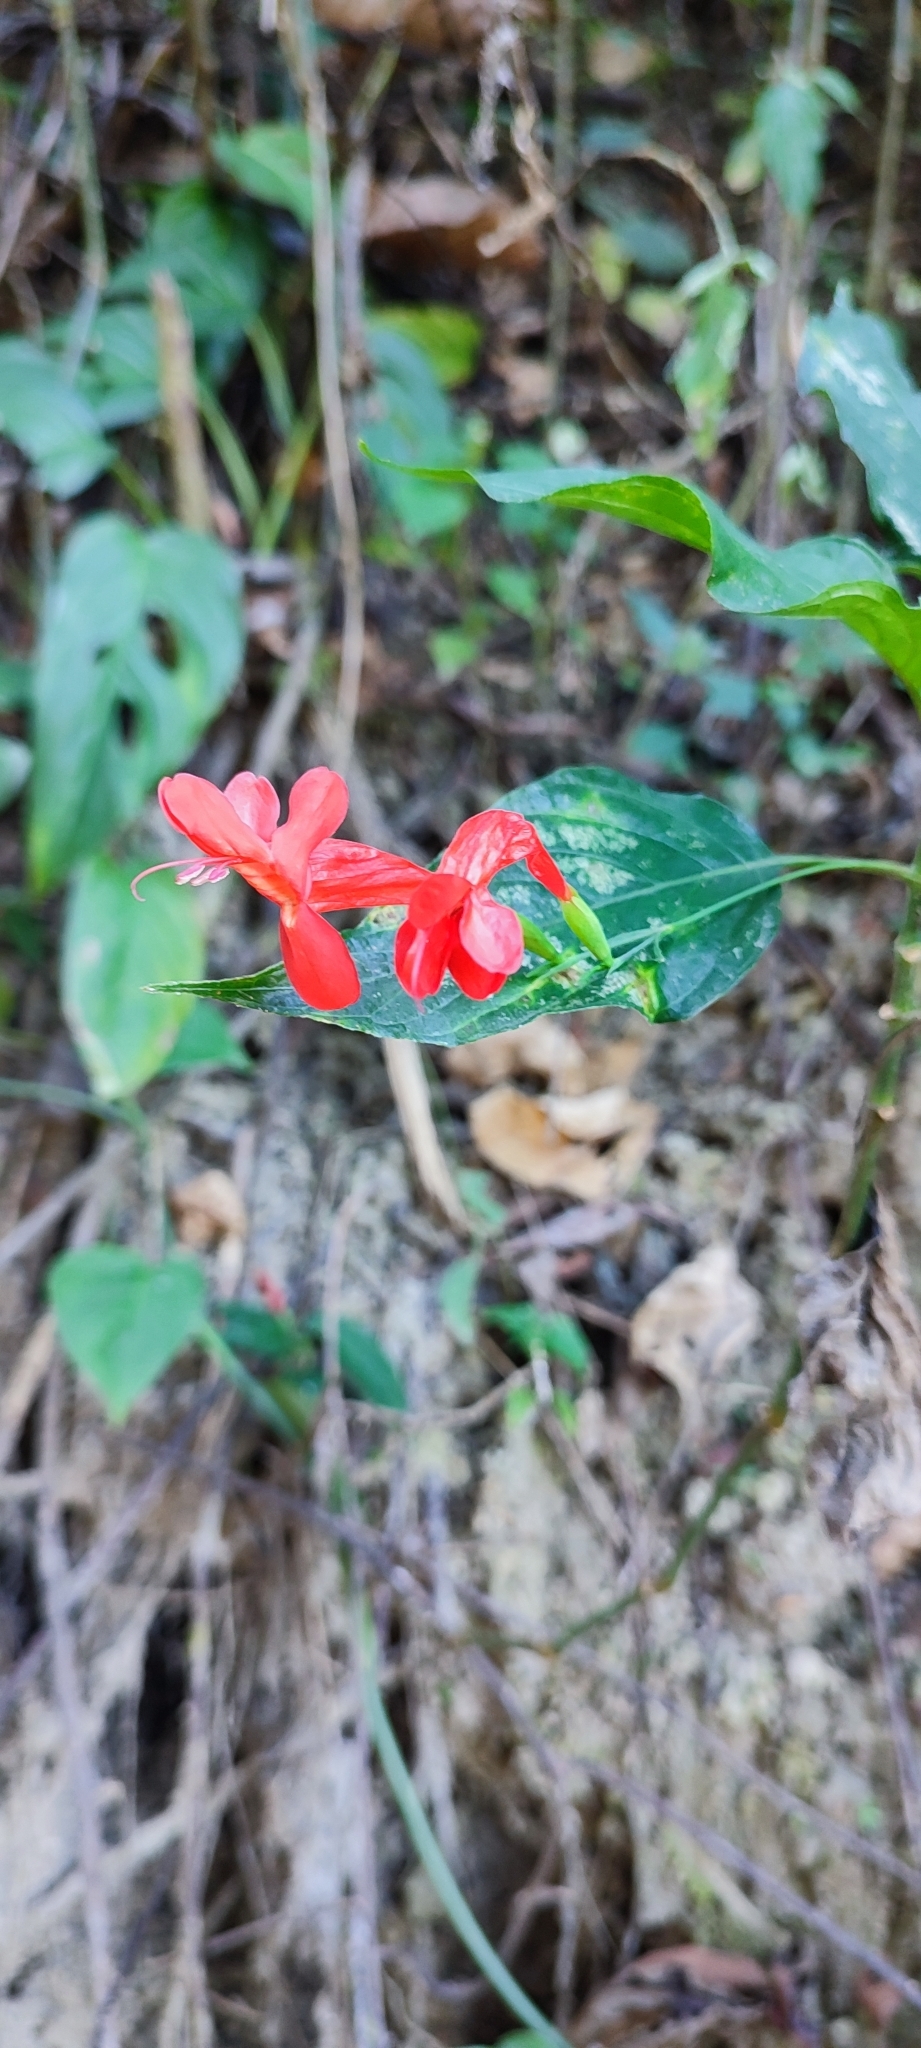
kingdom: Plantae
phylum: Tracheophyta
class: Magnoliopsida
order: Lamiales
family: Acanthaceae
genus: Ruellia
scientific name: Ruellia macrophylla
